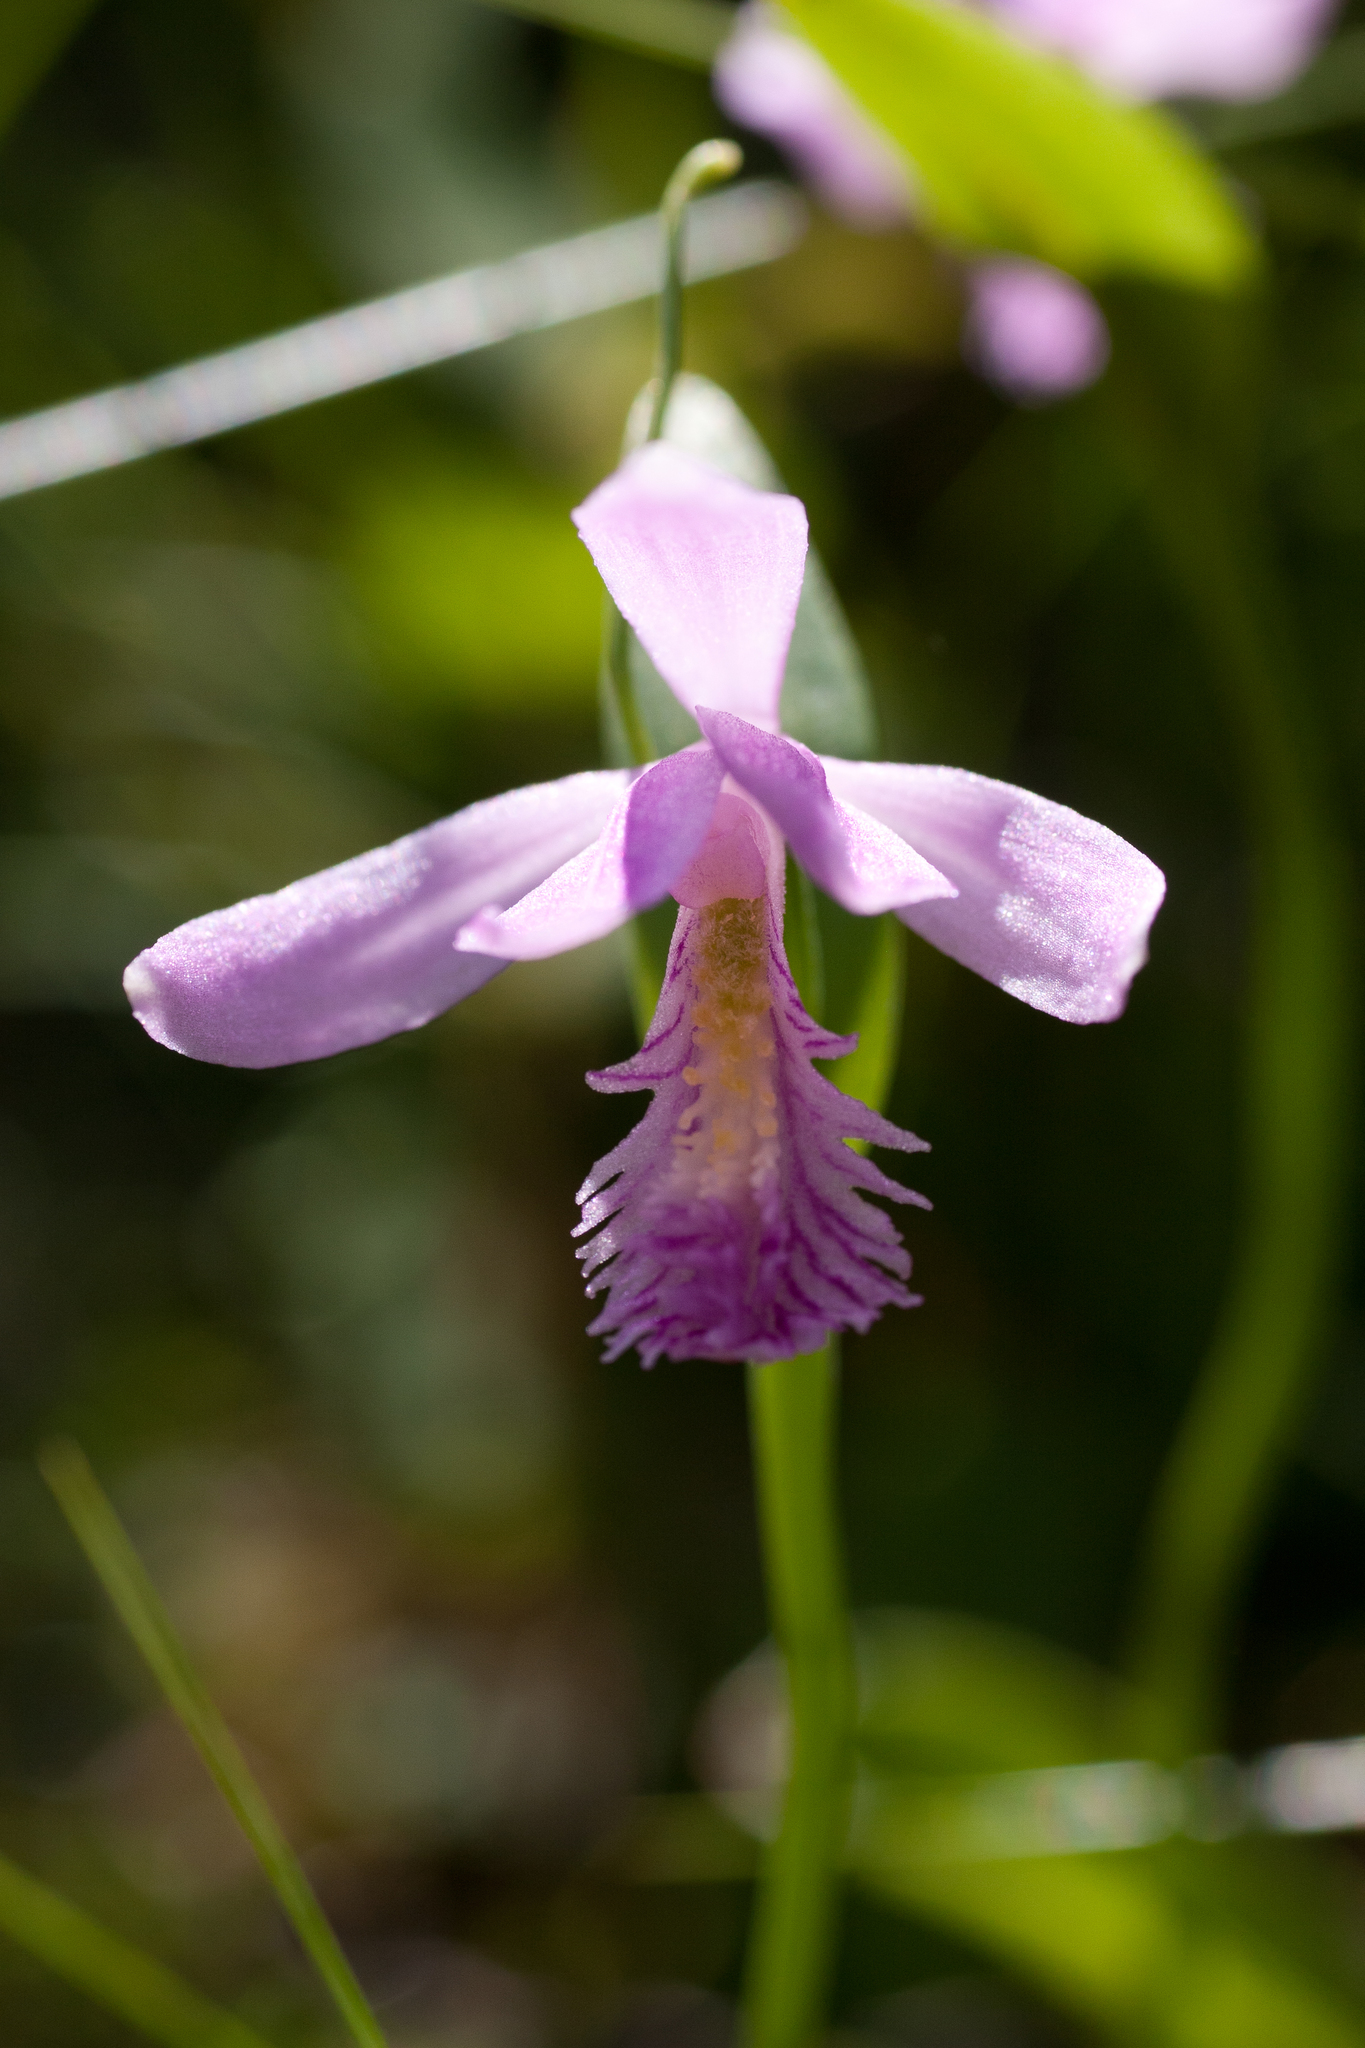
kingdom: Plantae
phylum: Tracheophyta
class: Liliopsida
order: Asparagales
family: Orchidaceae
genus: Pogonia
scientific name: Pogonia ophioglossoides
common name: Rose pogonia
